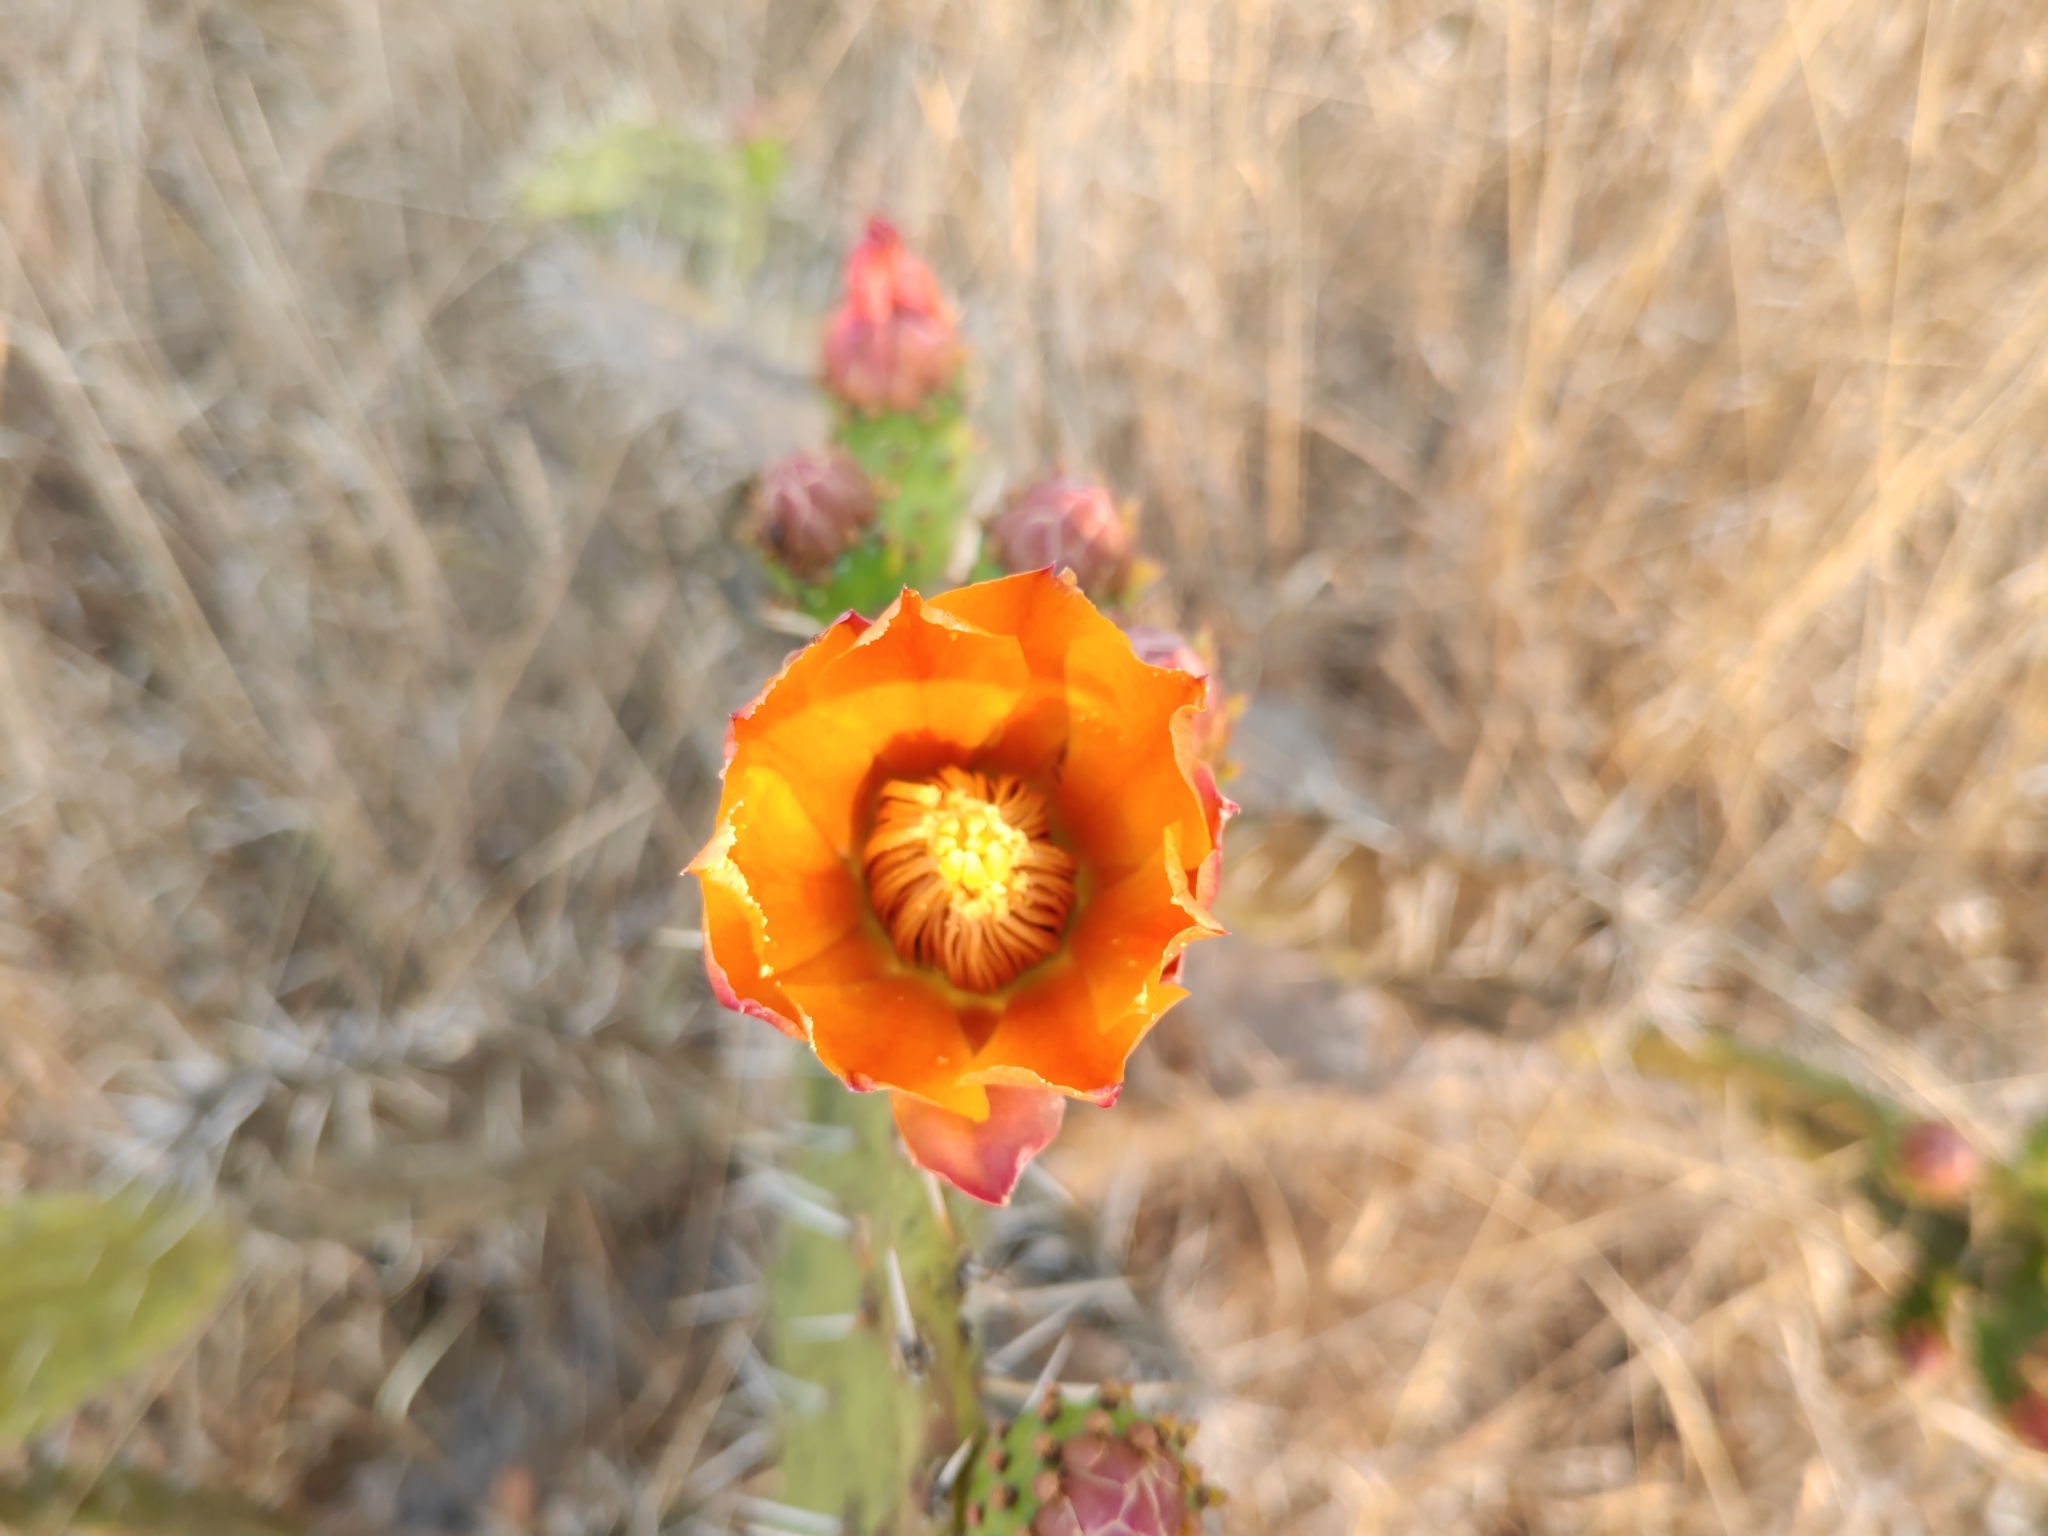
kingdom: Plantae
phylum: Tracheophyta
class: Magnoliopsida
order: Caryophyllales
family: Cactaceae
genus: Opuntia
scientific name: Opuntia tomentosa
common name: Woollyjoint pricklypear
